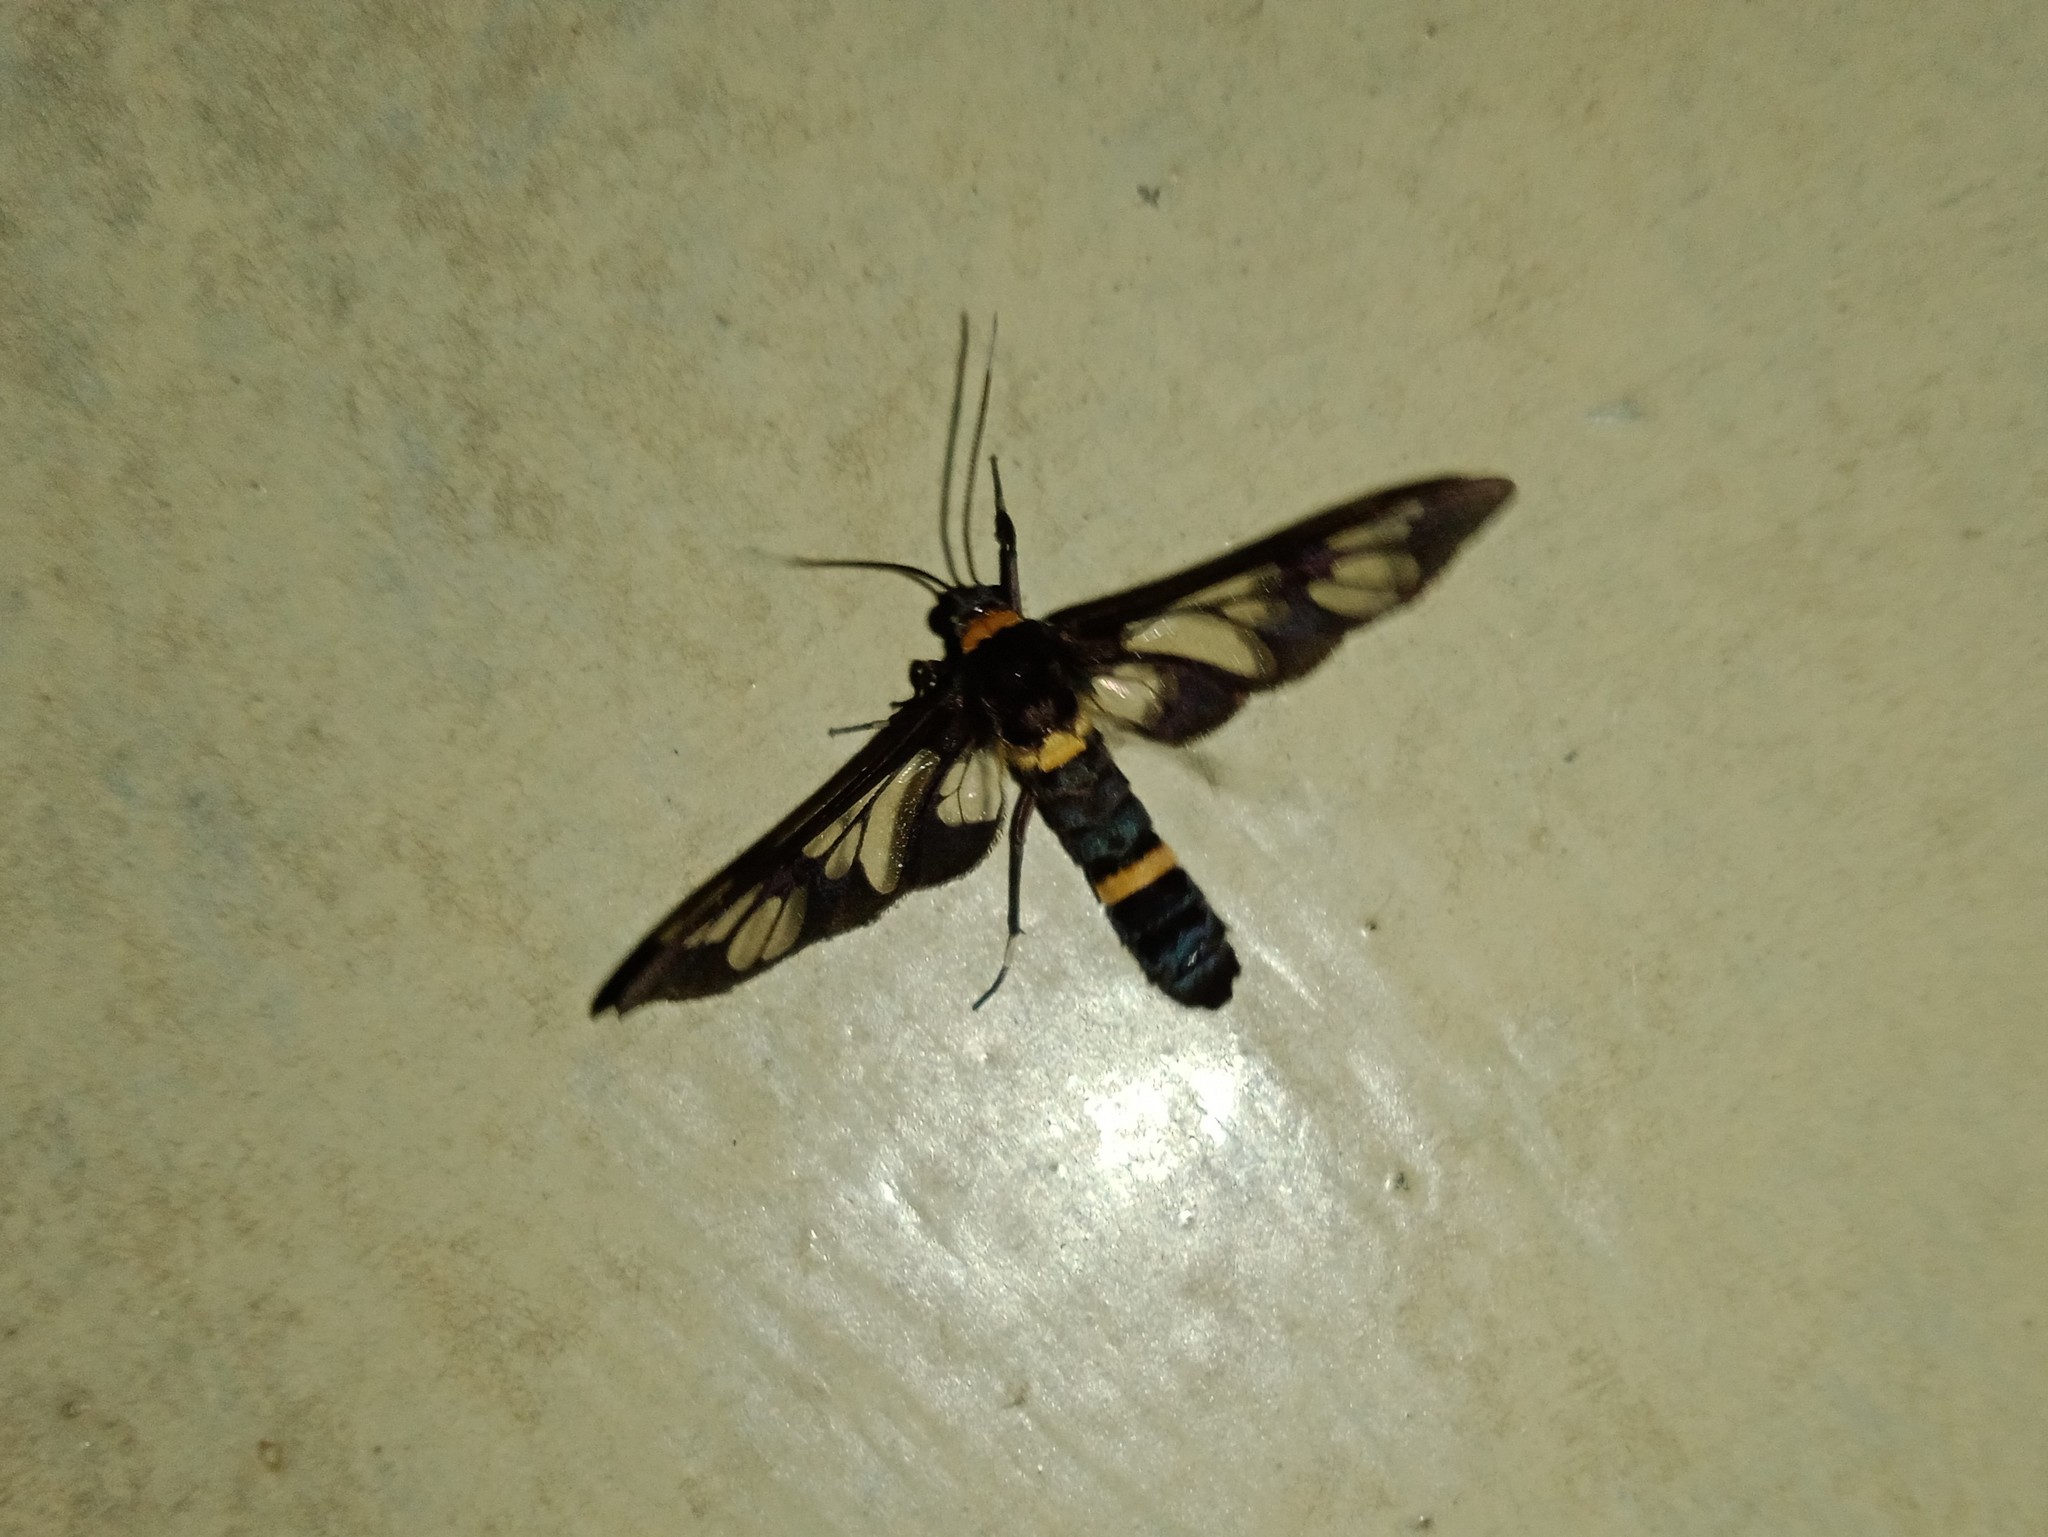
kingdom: Animalia
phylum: Arthropoda
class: Insecta
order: Lepidoptera
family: Erebidae
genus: Syntomoides
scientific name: Syntomoides imaon
